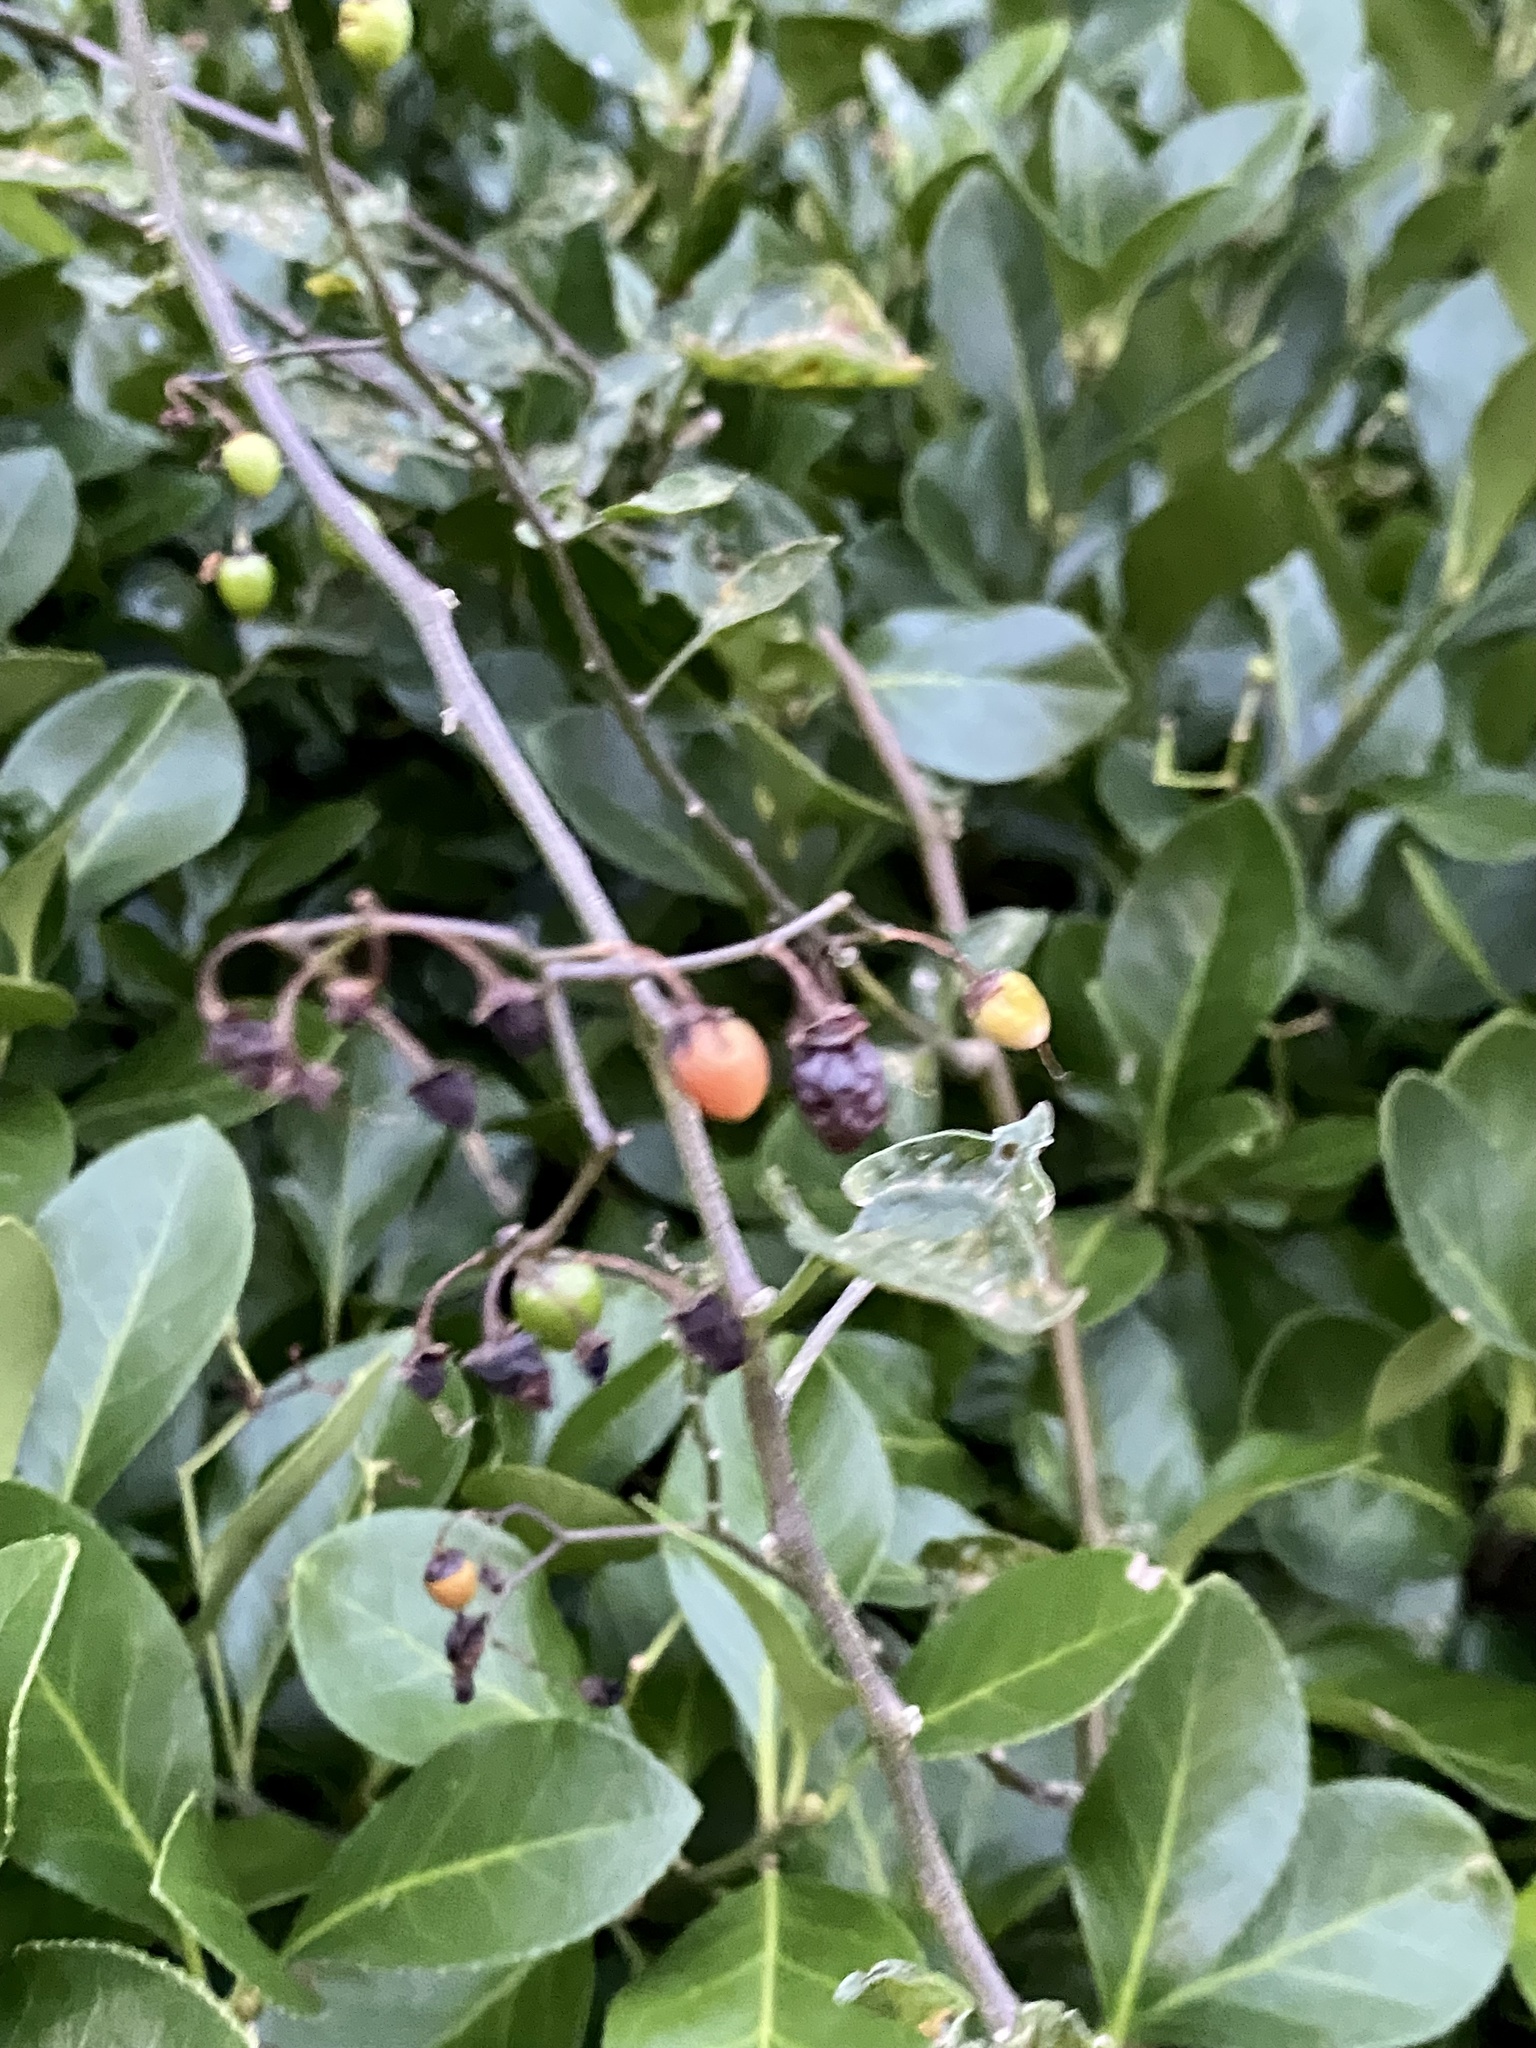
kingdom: Plantae
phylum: Tracheophyta
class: Magnoliopsida
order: Solanales
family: Solanaceae
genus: Solanum
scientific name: Solanum dulcamara
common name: Climbing nightshade
